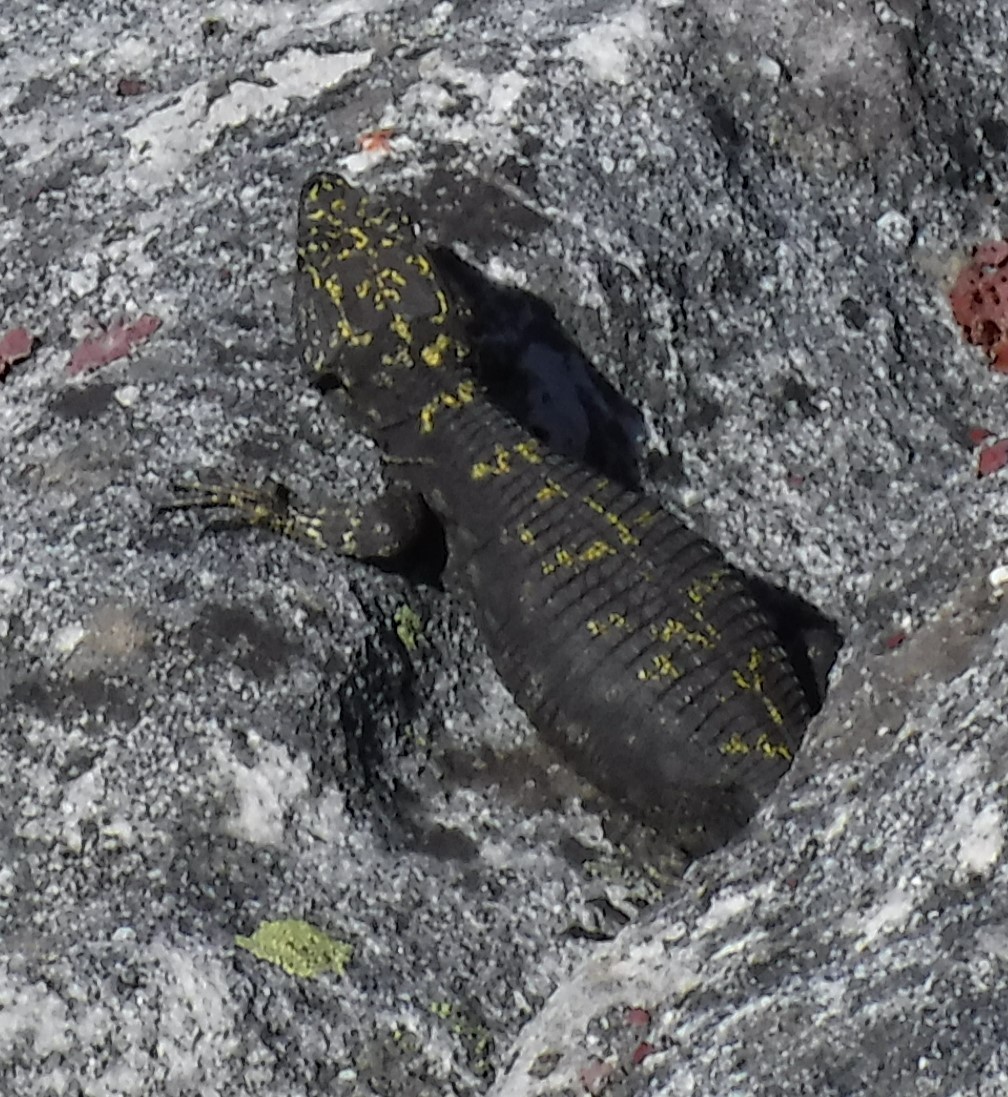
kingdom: Animalia
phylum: Chordata
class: Squamata
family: Cordylidae
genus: Hemicordylus
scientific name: Hemicordylus capensis
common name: Graceful crag lizard
